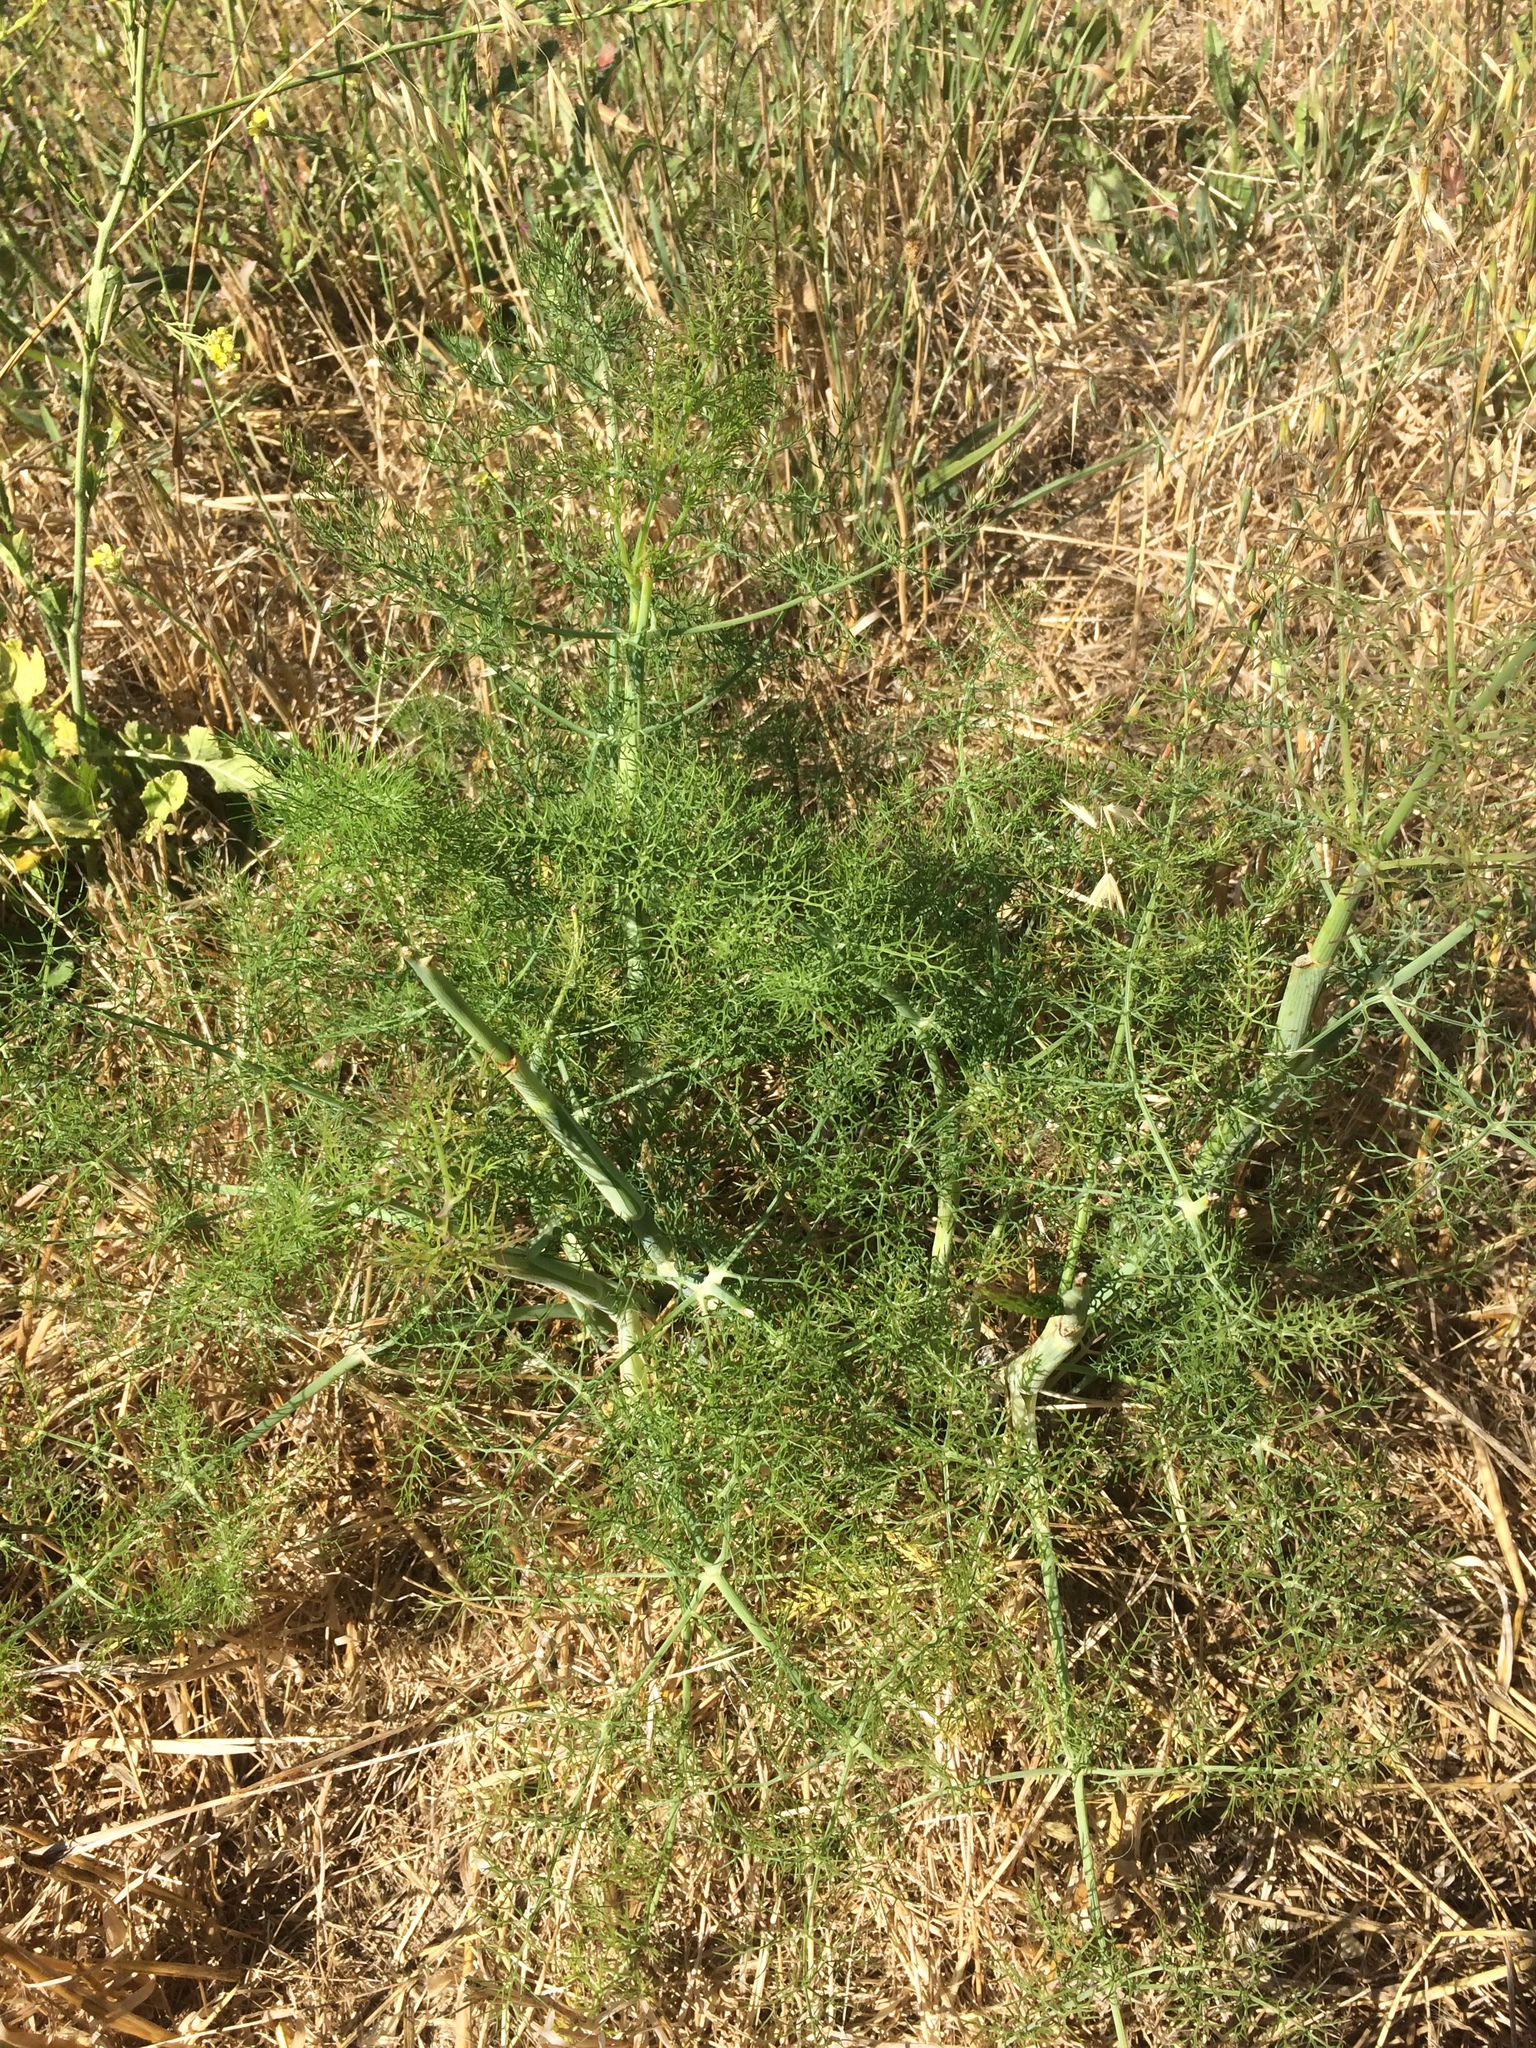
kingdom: Plantae
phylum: Tracheophyta
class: Magnoliopsida
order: Apiales
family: Apiaceae
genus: Foeniculum
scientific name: Foeniculum vulgare
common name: Fennel
